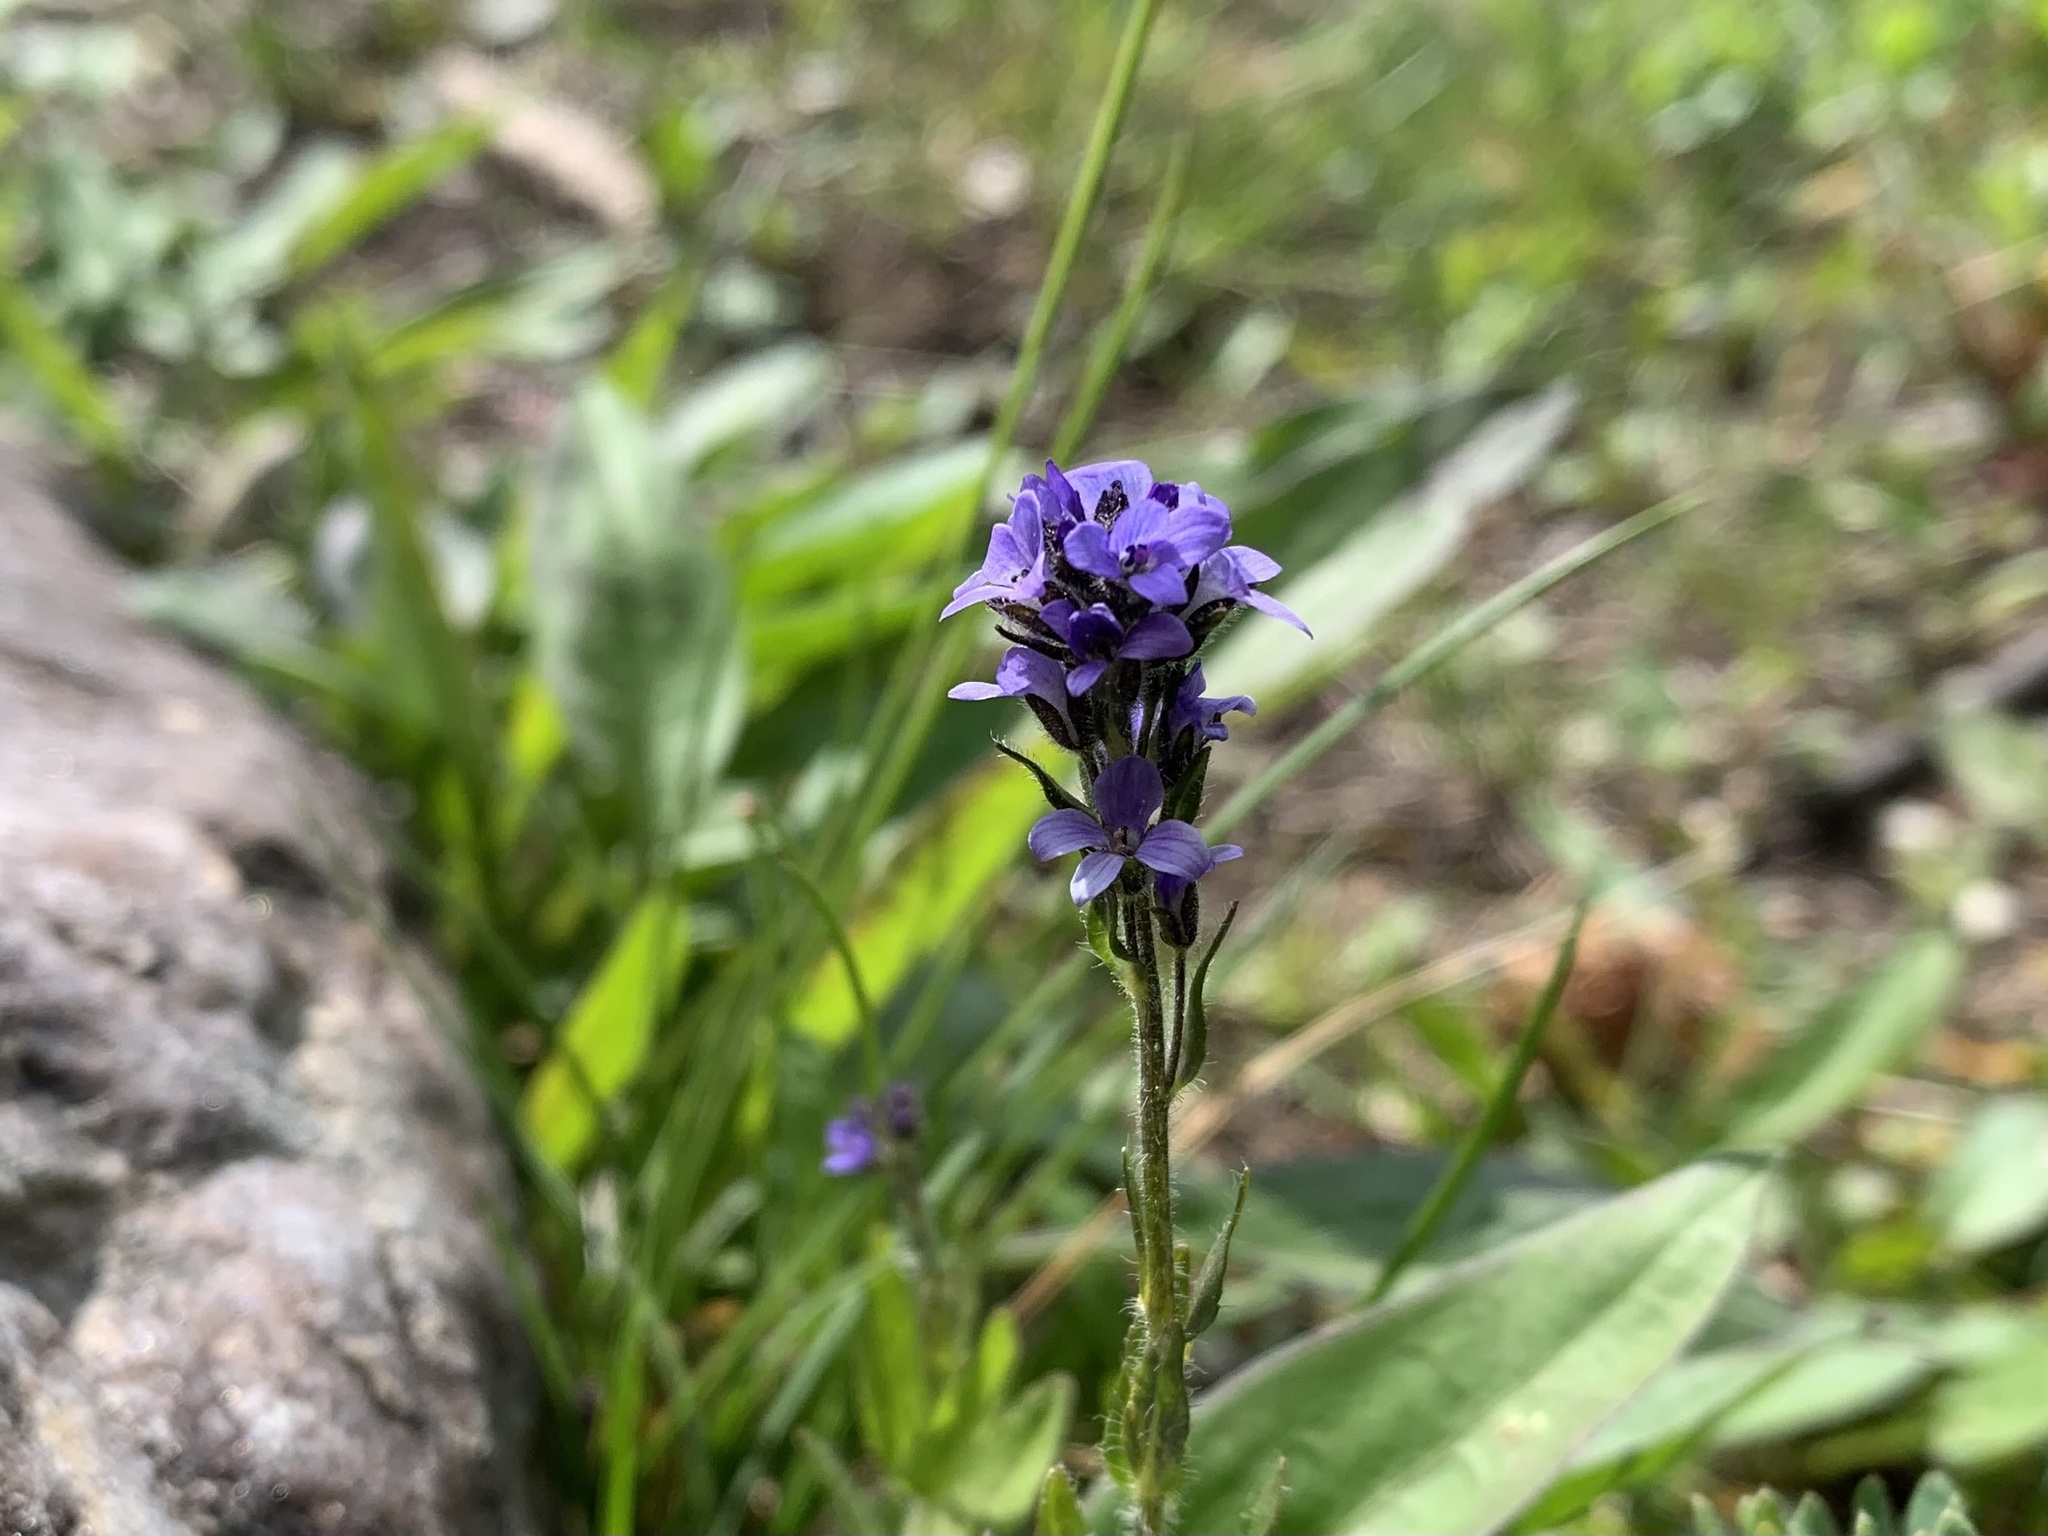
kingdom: Plantae
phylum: Tracheophyta
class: Magnoliopsida
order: Lamiales
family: Plantaginaceae
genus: Veronica
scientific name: Veronica wormskjoldii
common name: American alpine speedwell
